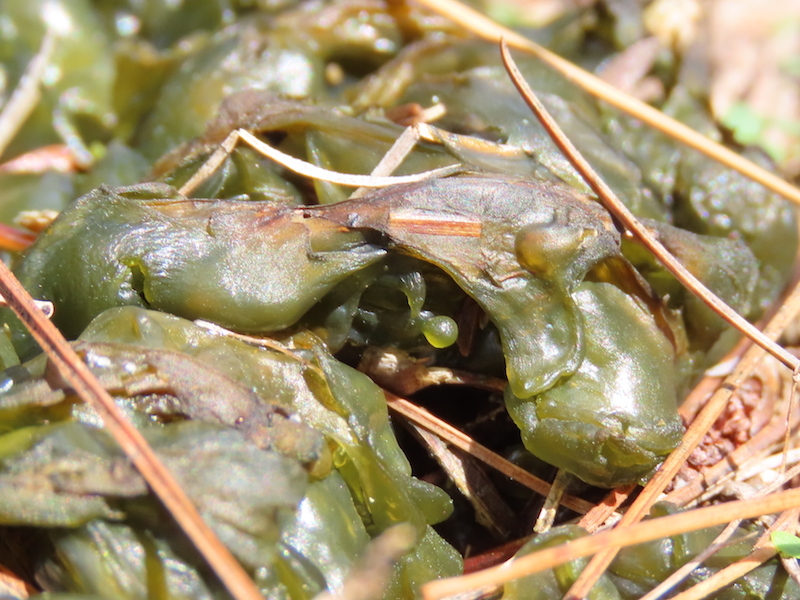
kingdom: Bacteria
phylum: Cyanobacteria
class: Cyanobacteriia
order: Cyanobacteriales
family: Nostocaceae
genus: Nostoc
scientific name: Nostoc commune
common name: Star jelly
